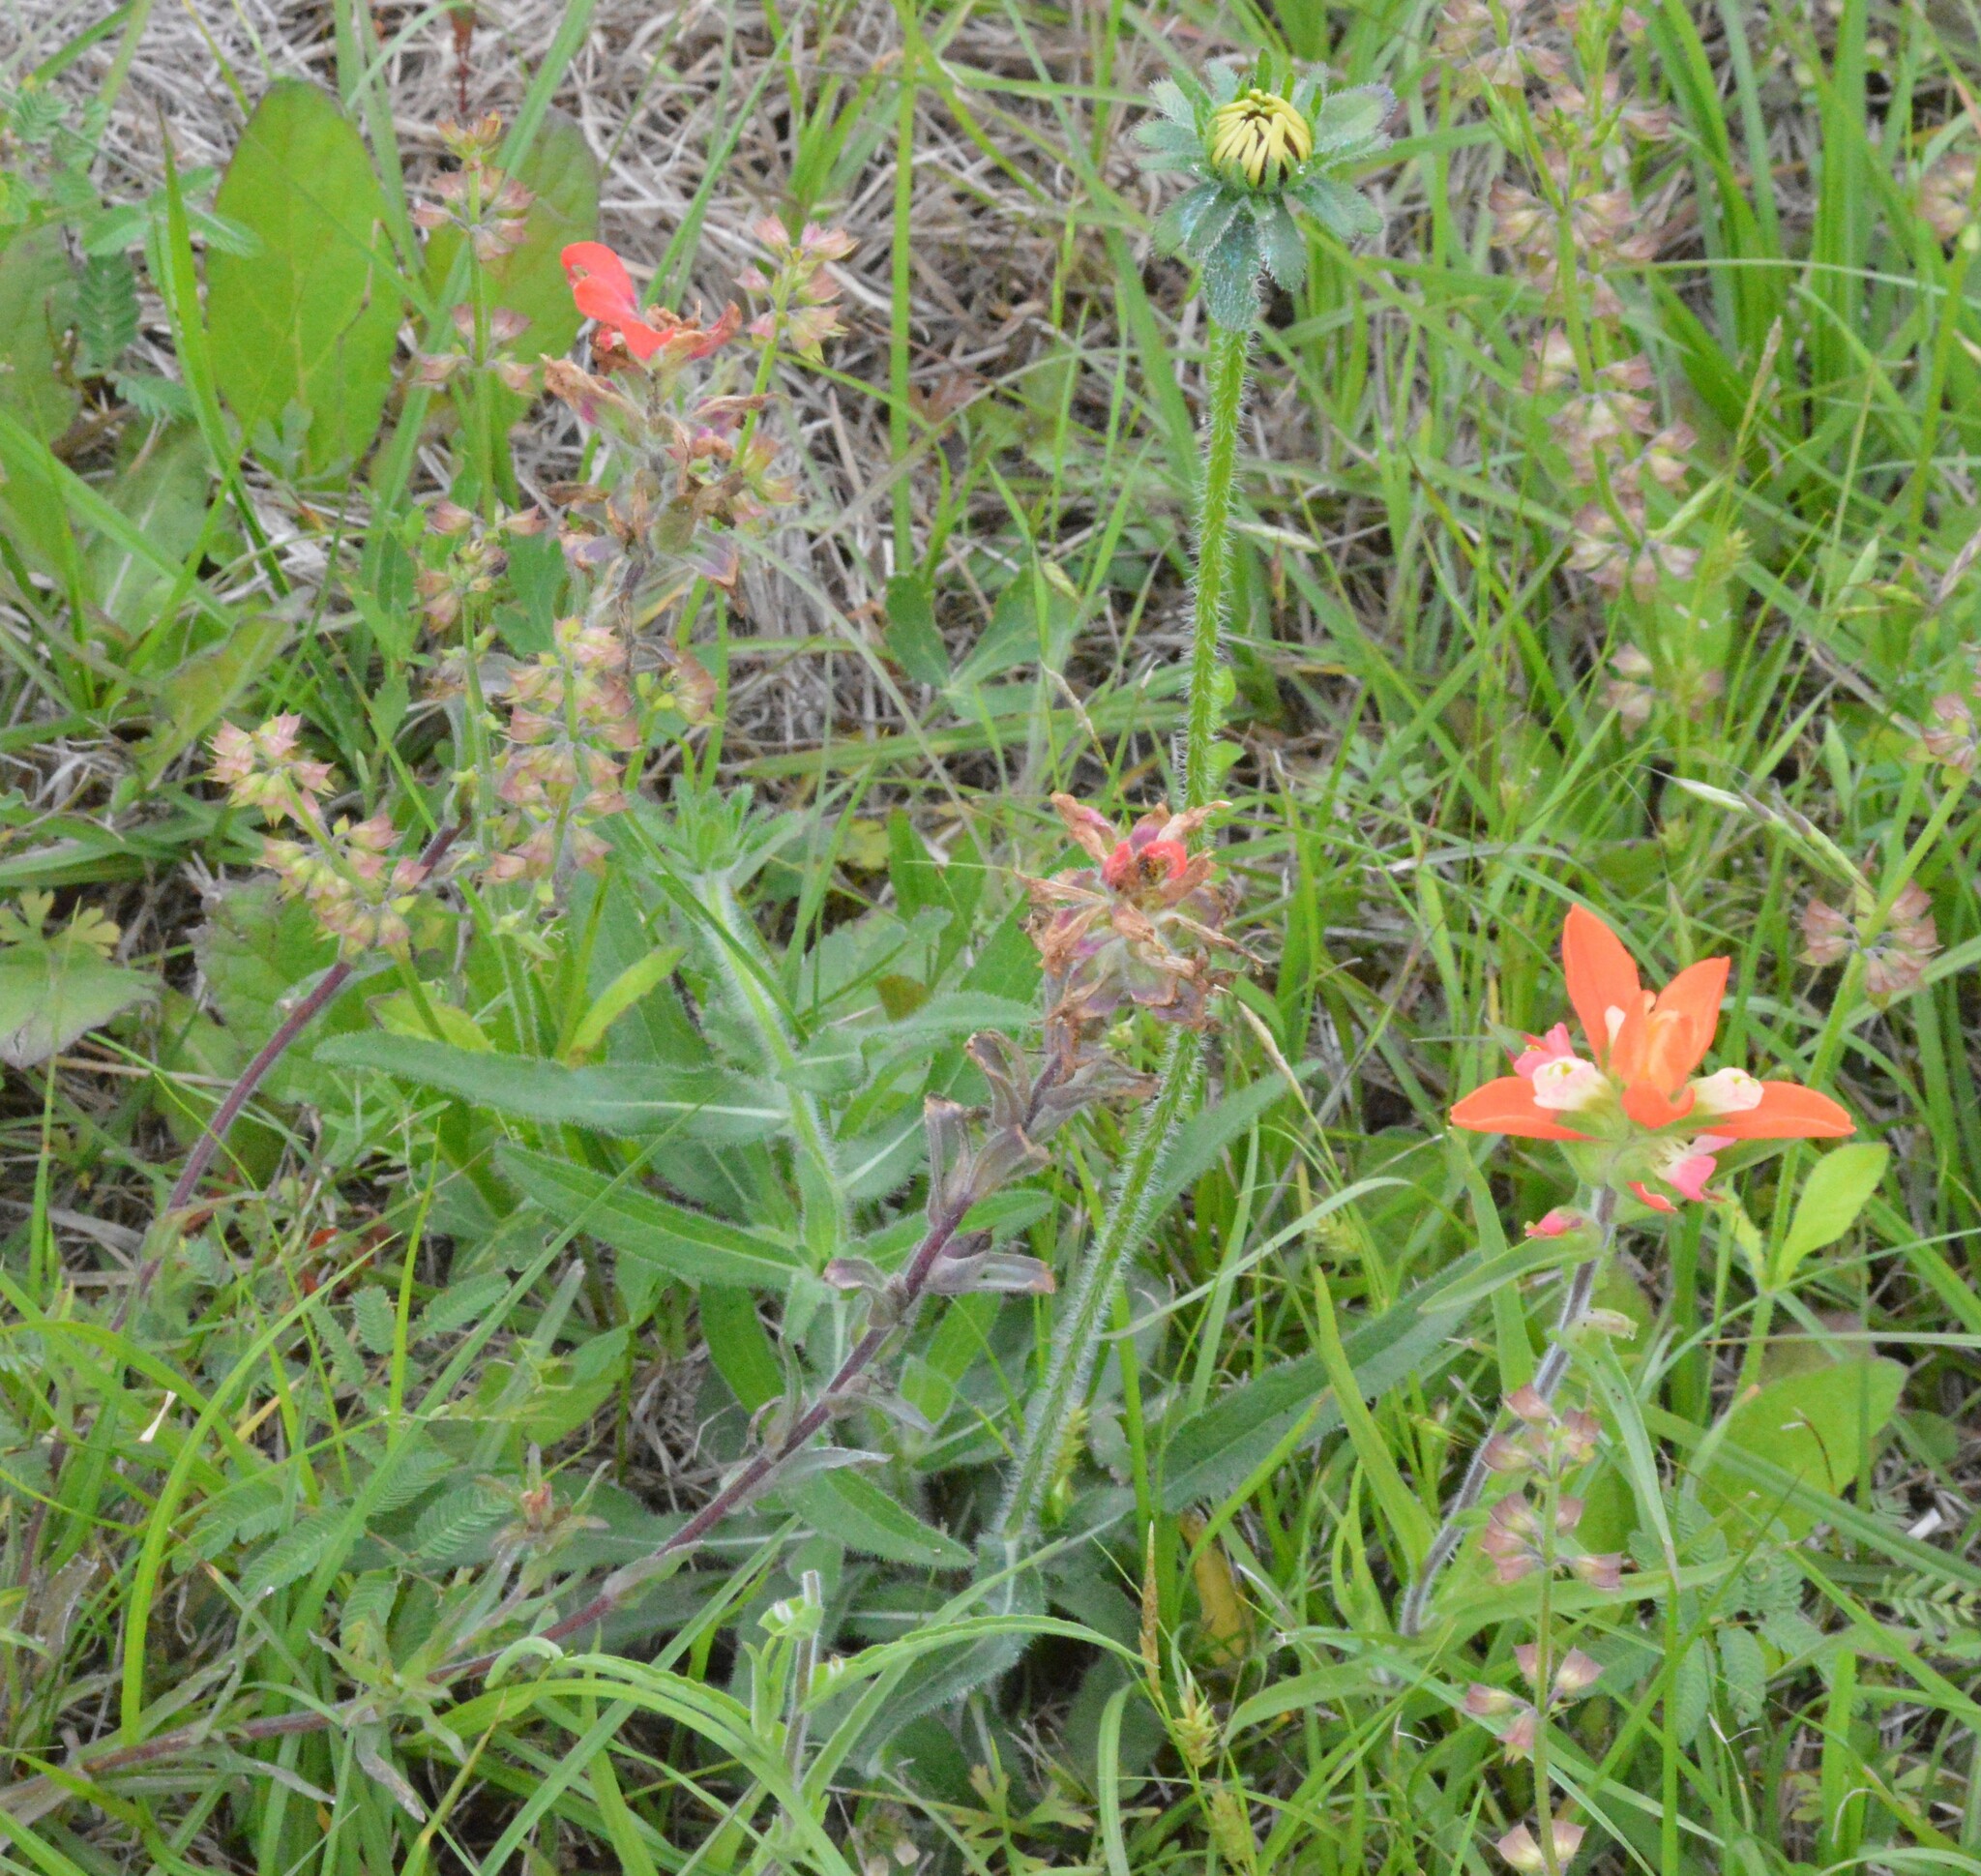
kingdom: Plantae
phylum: Tracheophyta
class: Magnoliopsida
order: Lamiales
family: Orobanchaceae
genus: Castilleja
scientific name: Castilleja indivisa
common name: Texas paintbrush
